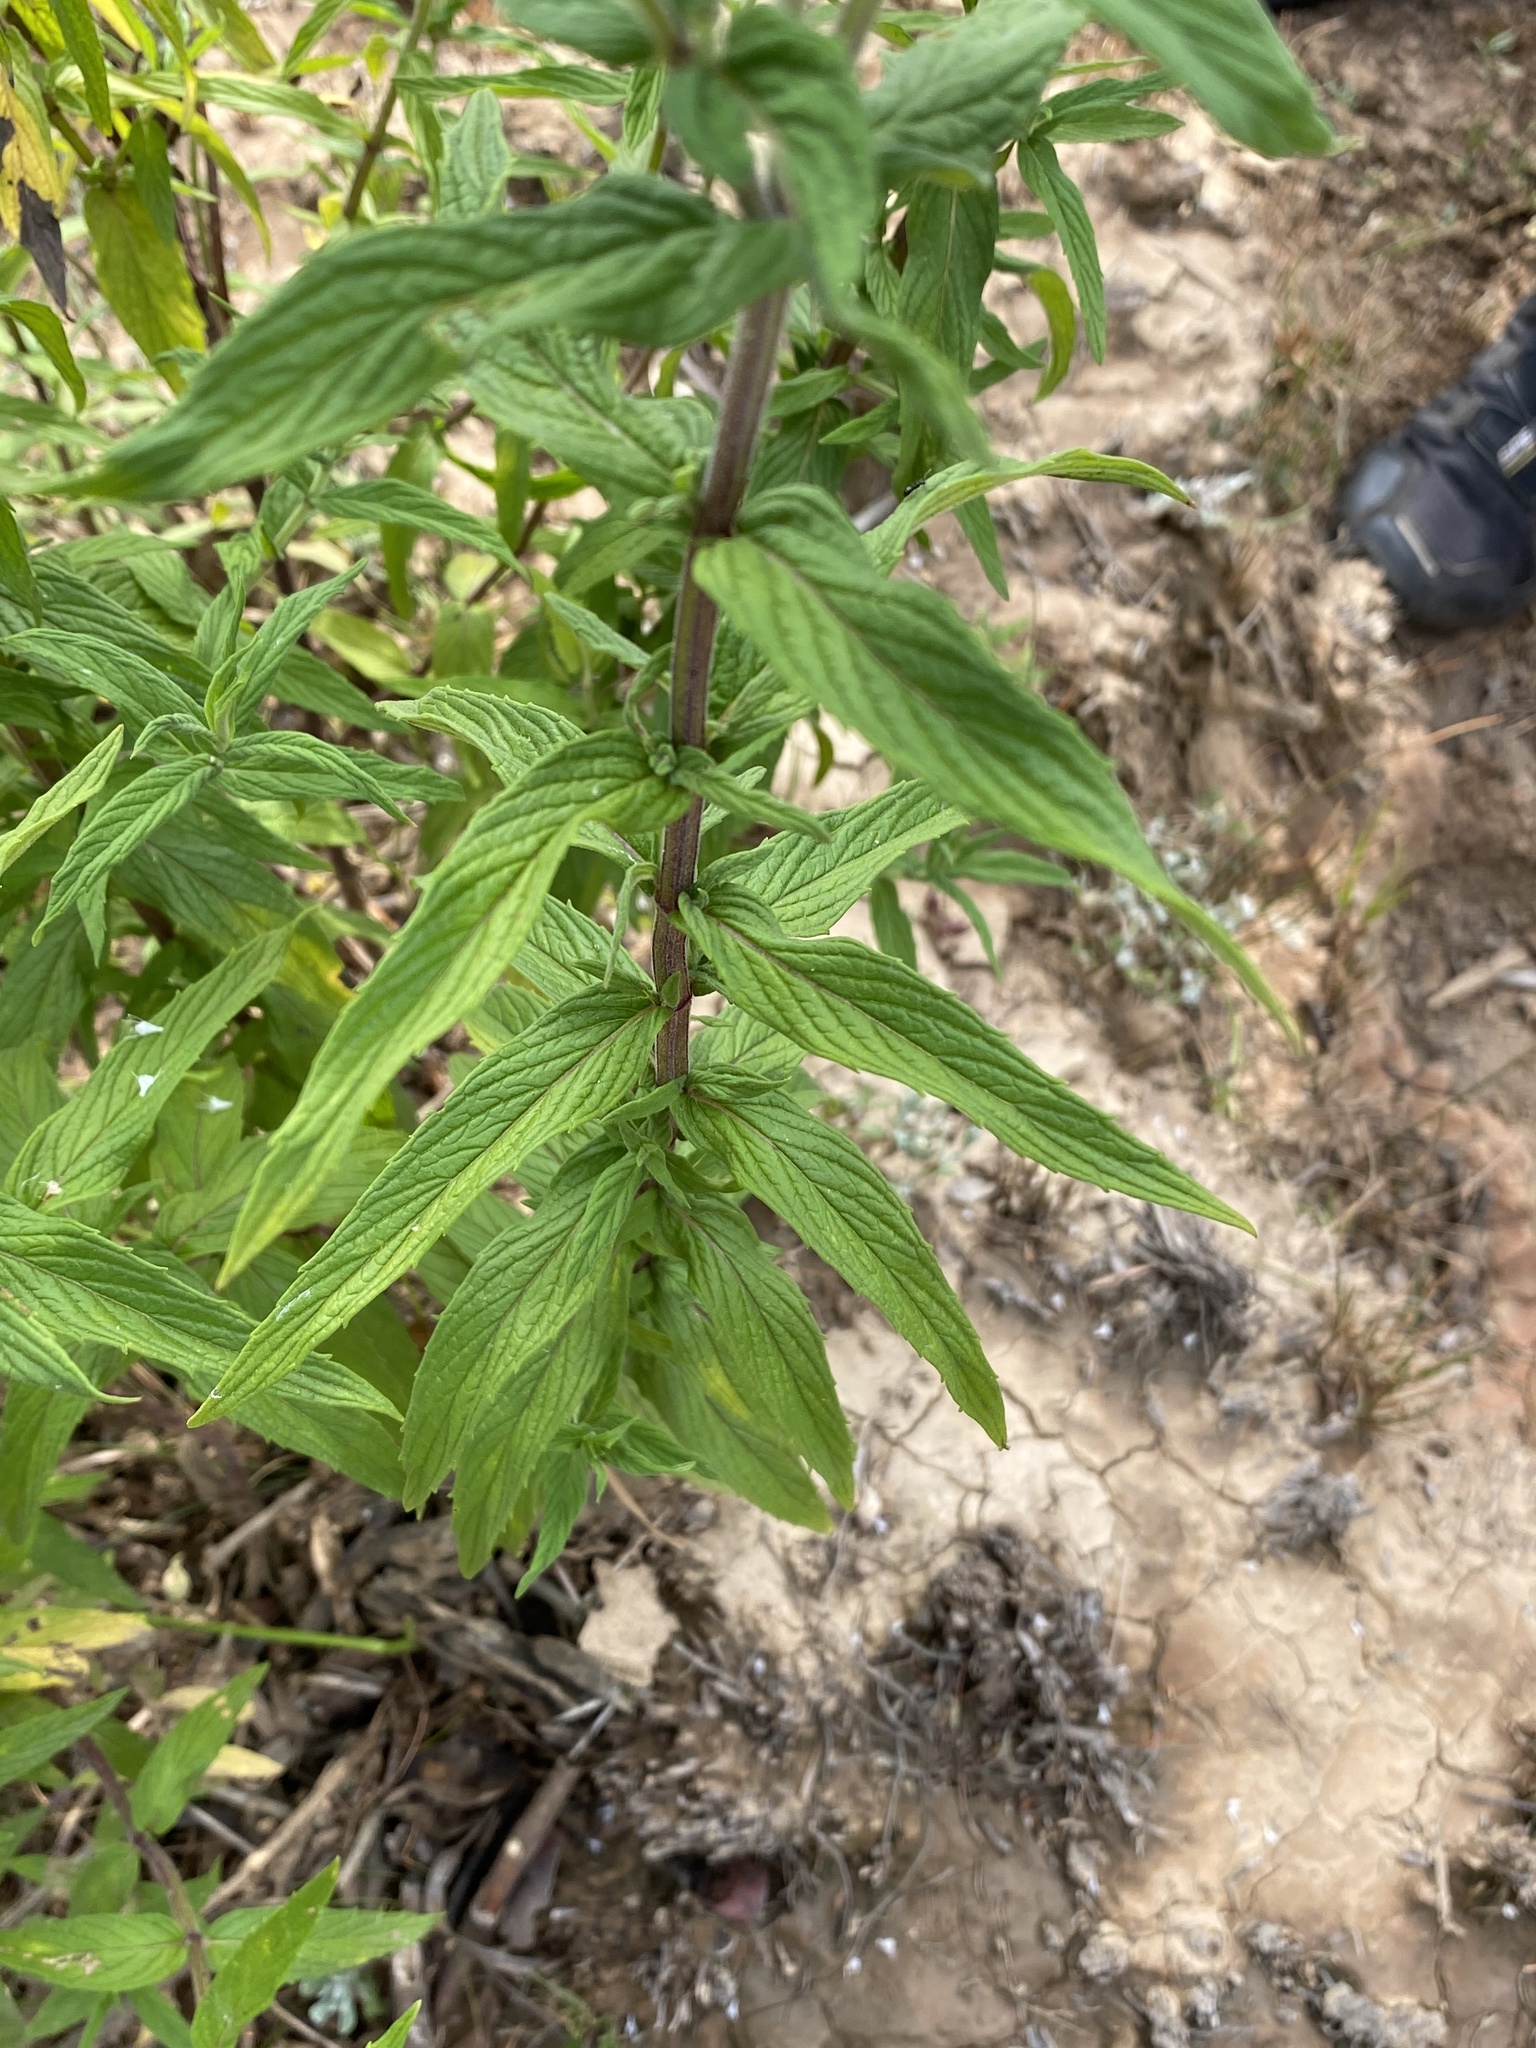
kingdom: Plantae
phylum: Tracheophyta
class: Magnoliopsida
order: Lamiales
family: Lamiaceae
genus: Mentha
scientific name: Mentha longifolia
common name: Horse mint
